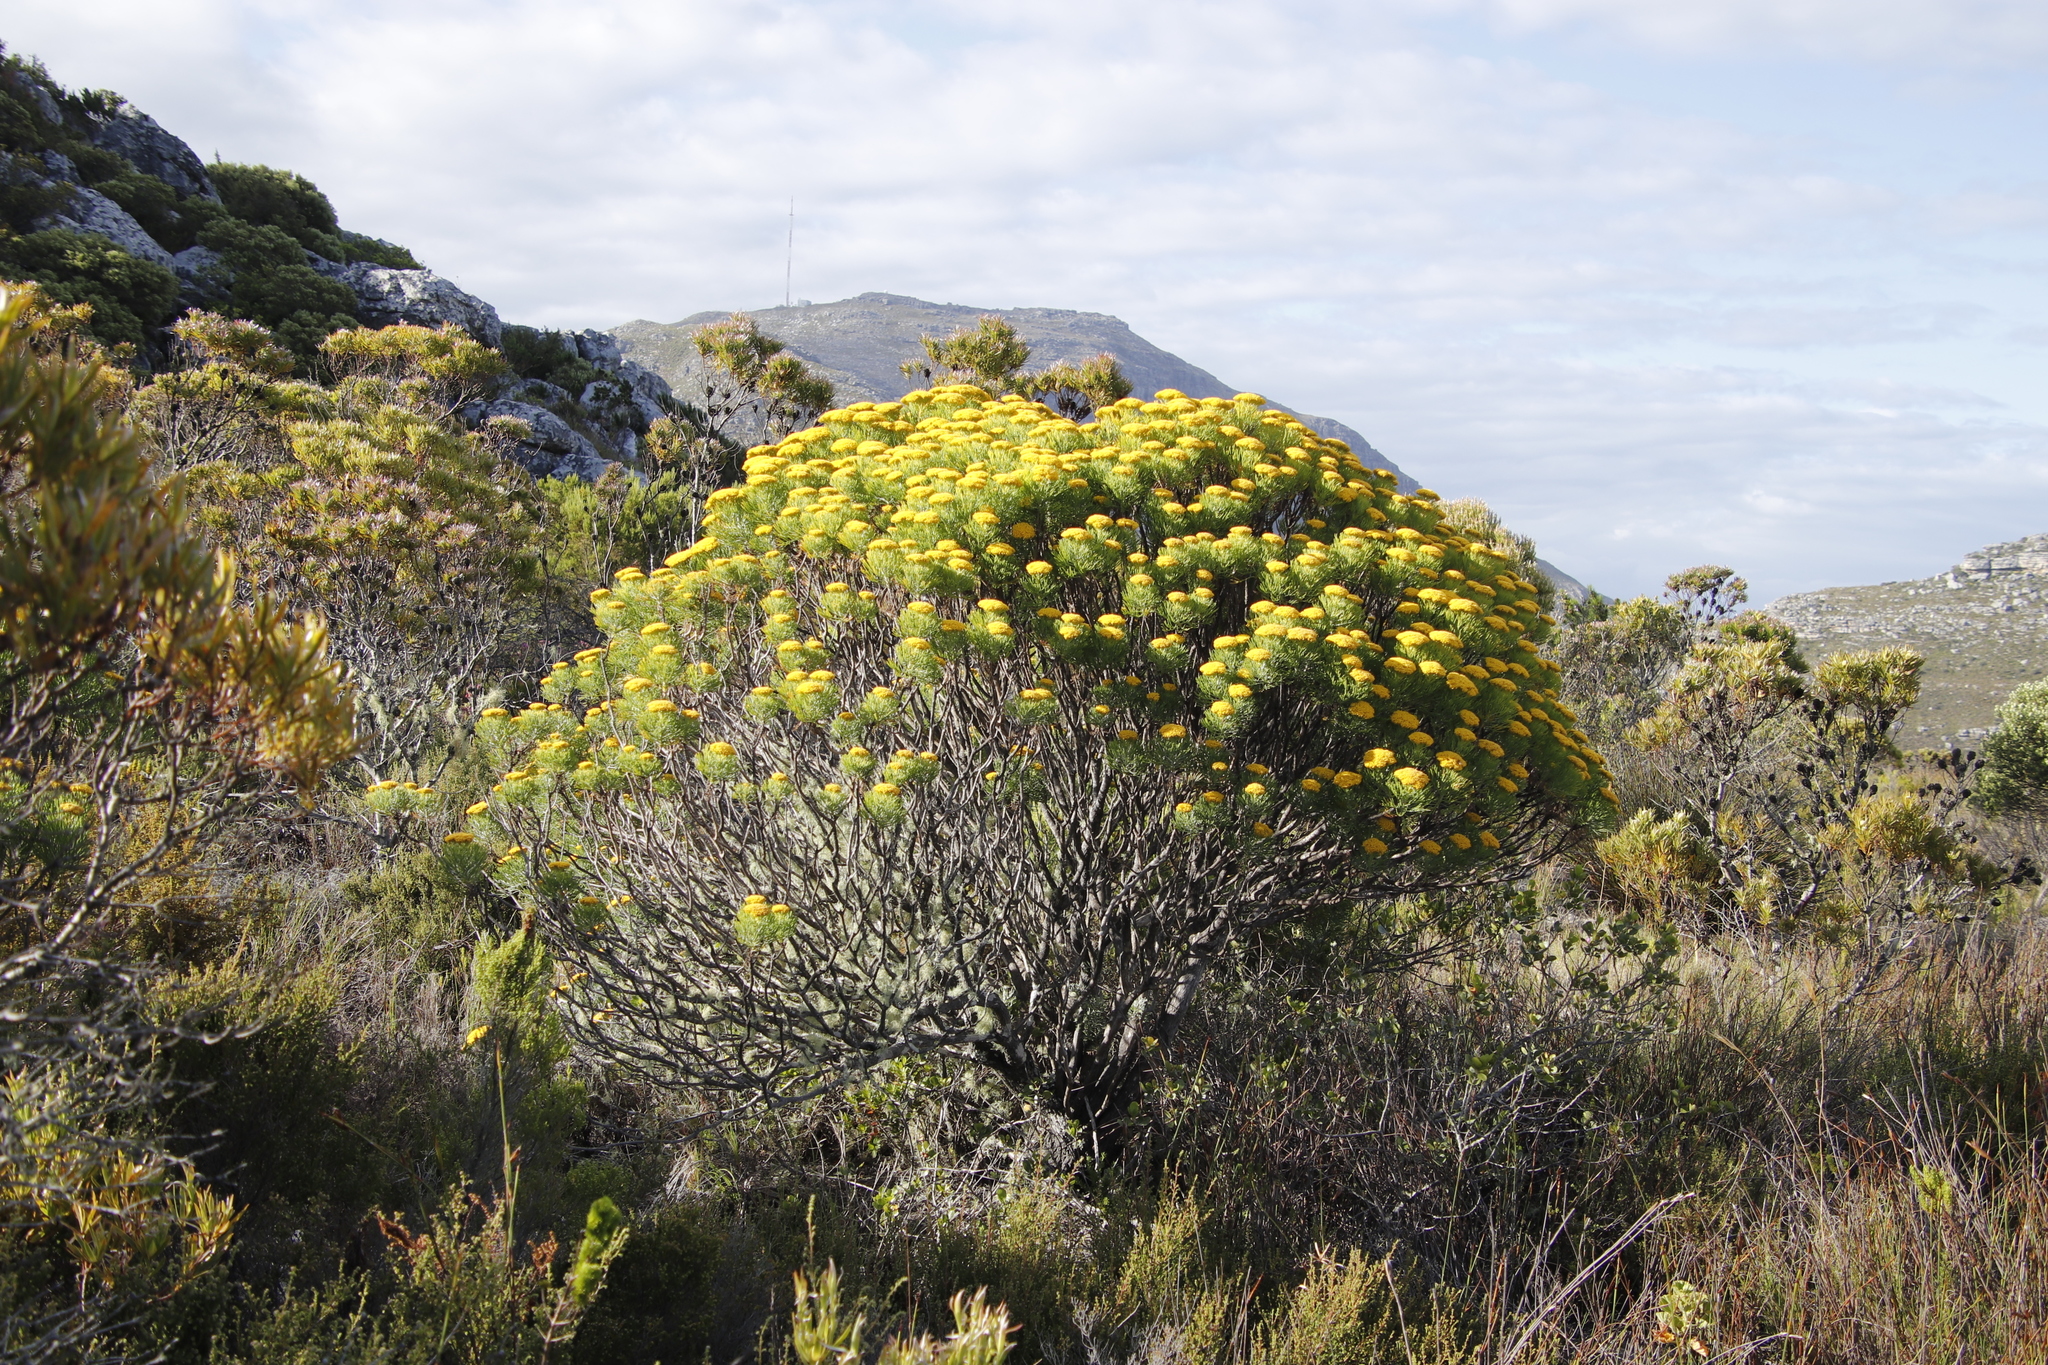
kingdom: Plantae
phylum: Tracheophyta
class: Magnoliopsida
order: Asterales
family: Asteraceae
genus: Hymenolepis
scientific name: Hymenolepis crithmifolia
